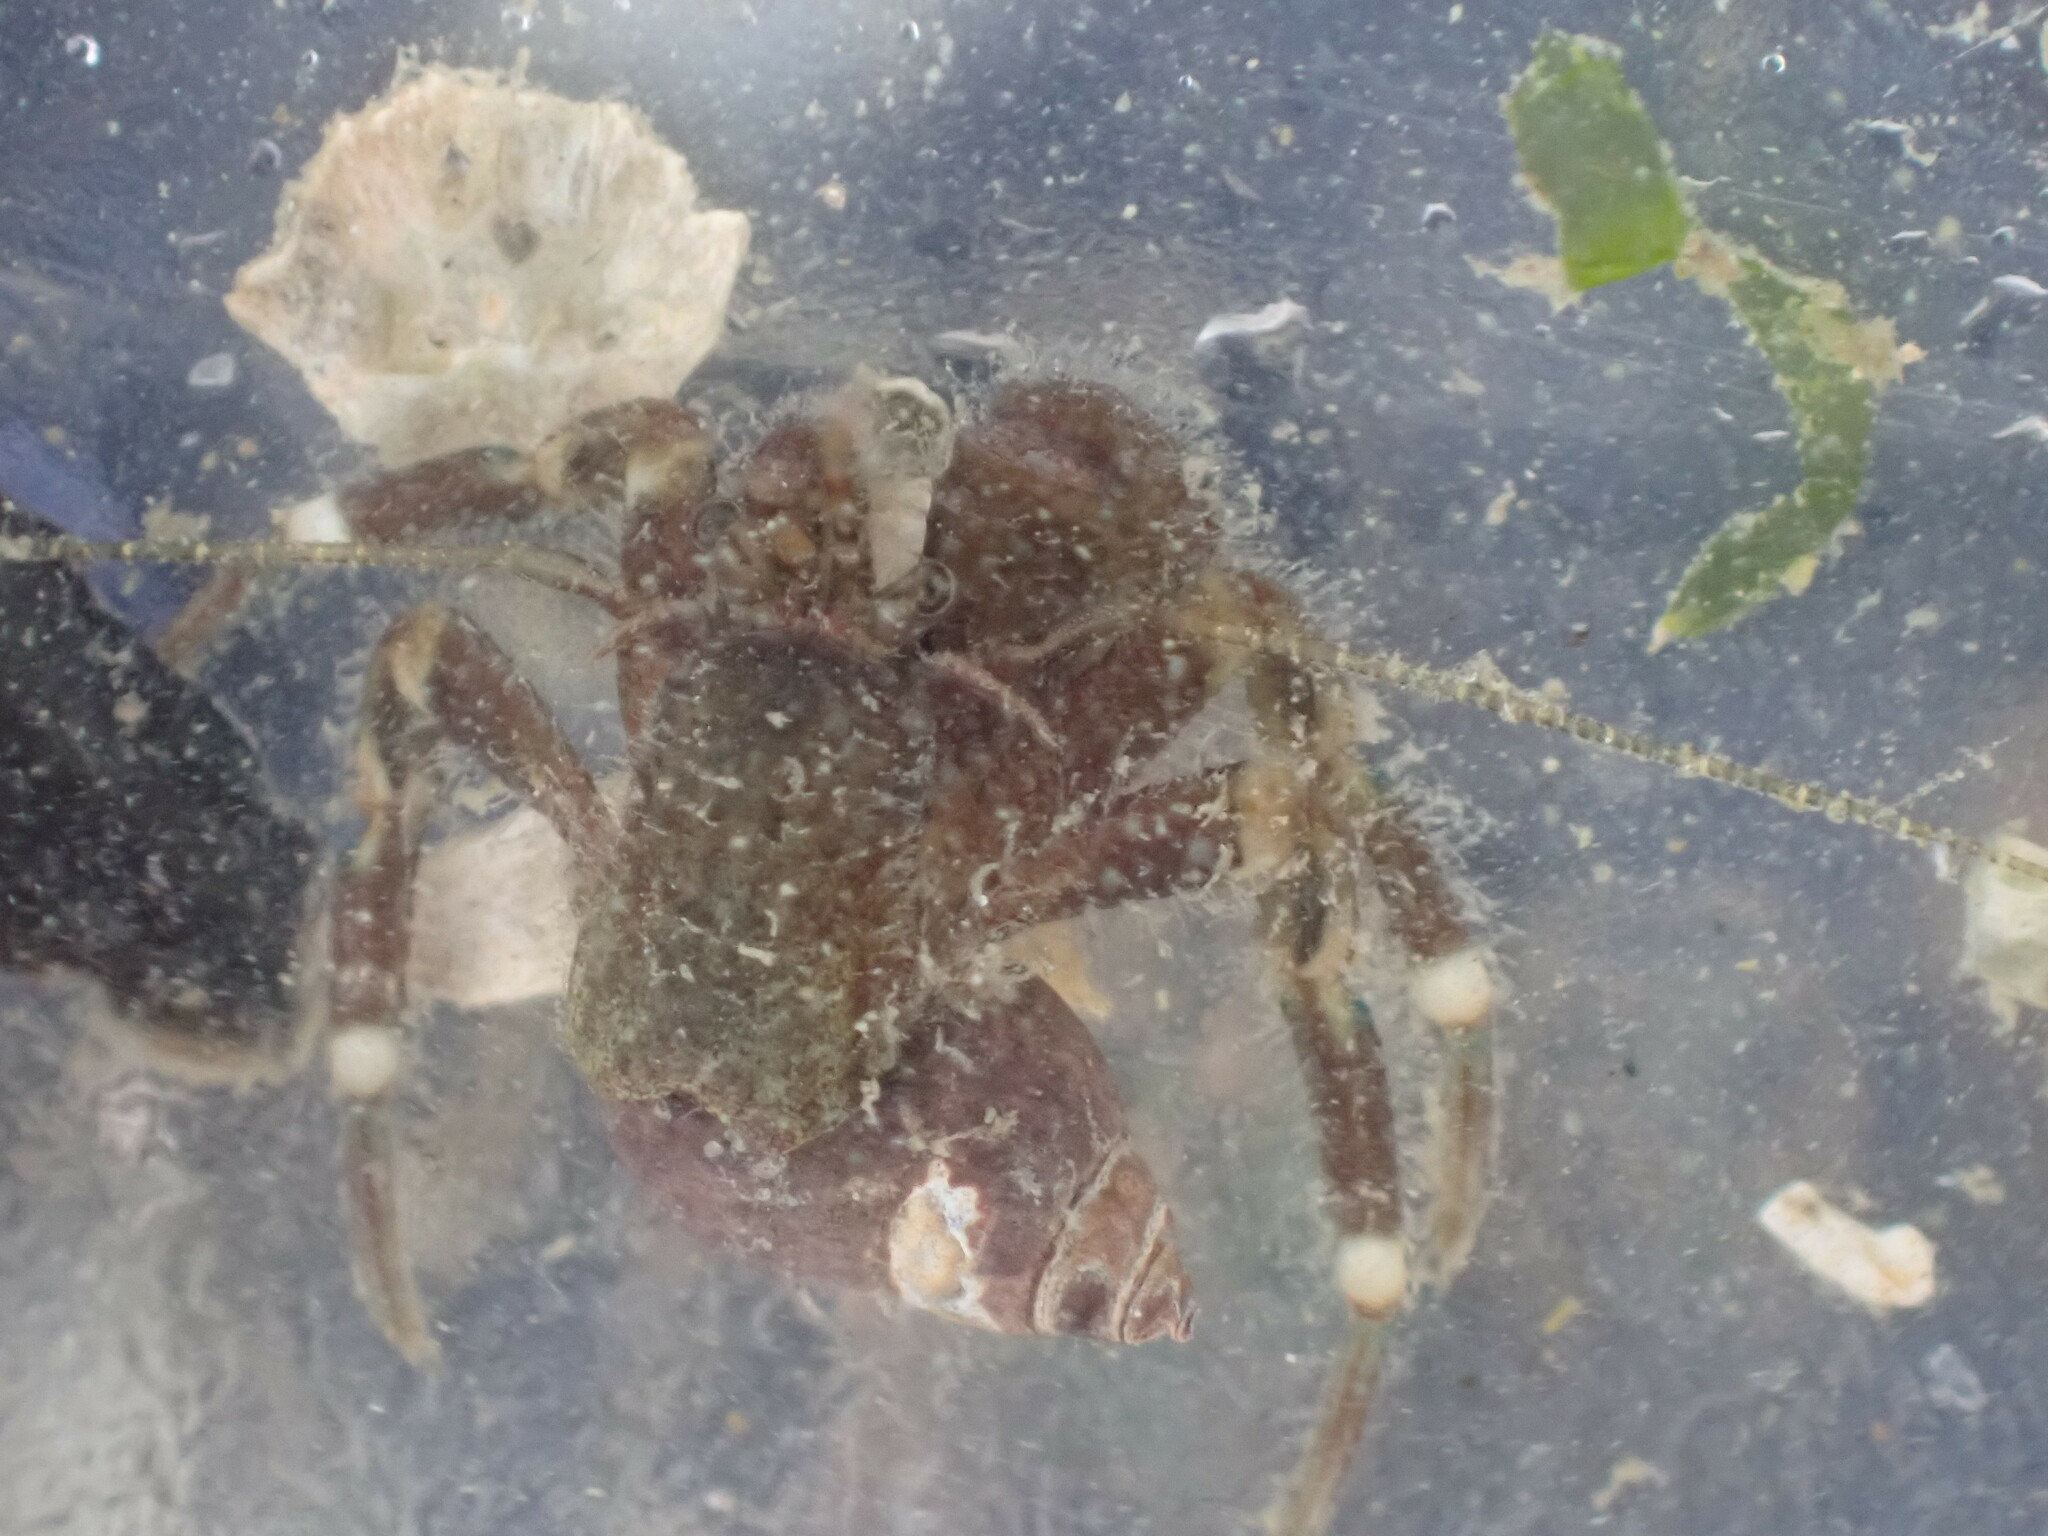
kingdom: Animalia
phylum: Arthropoda
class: Malacostraca
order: Decapoda
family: Paguridae
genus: Pagurus
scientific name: Pagurus hirsutiusculus
